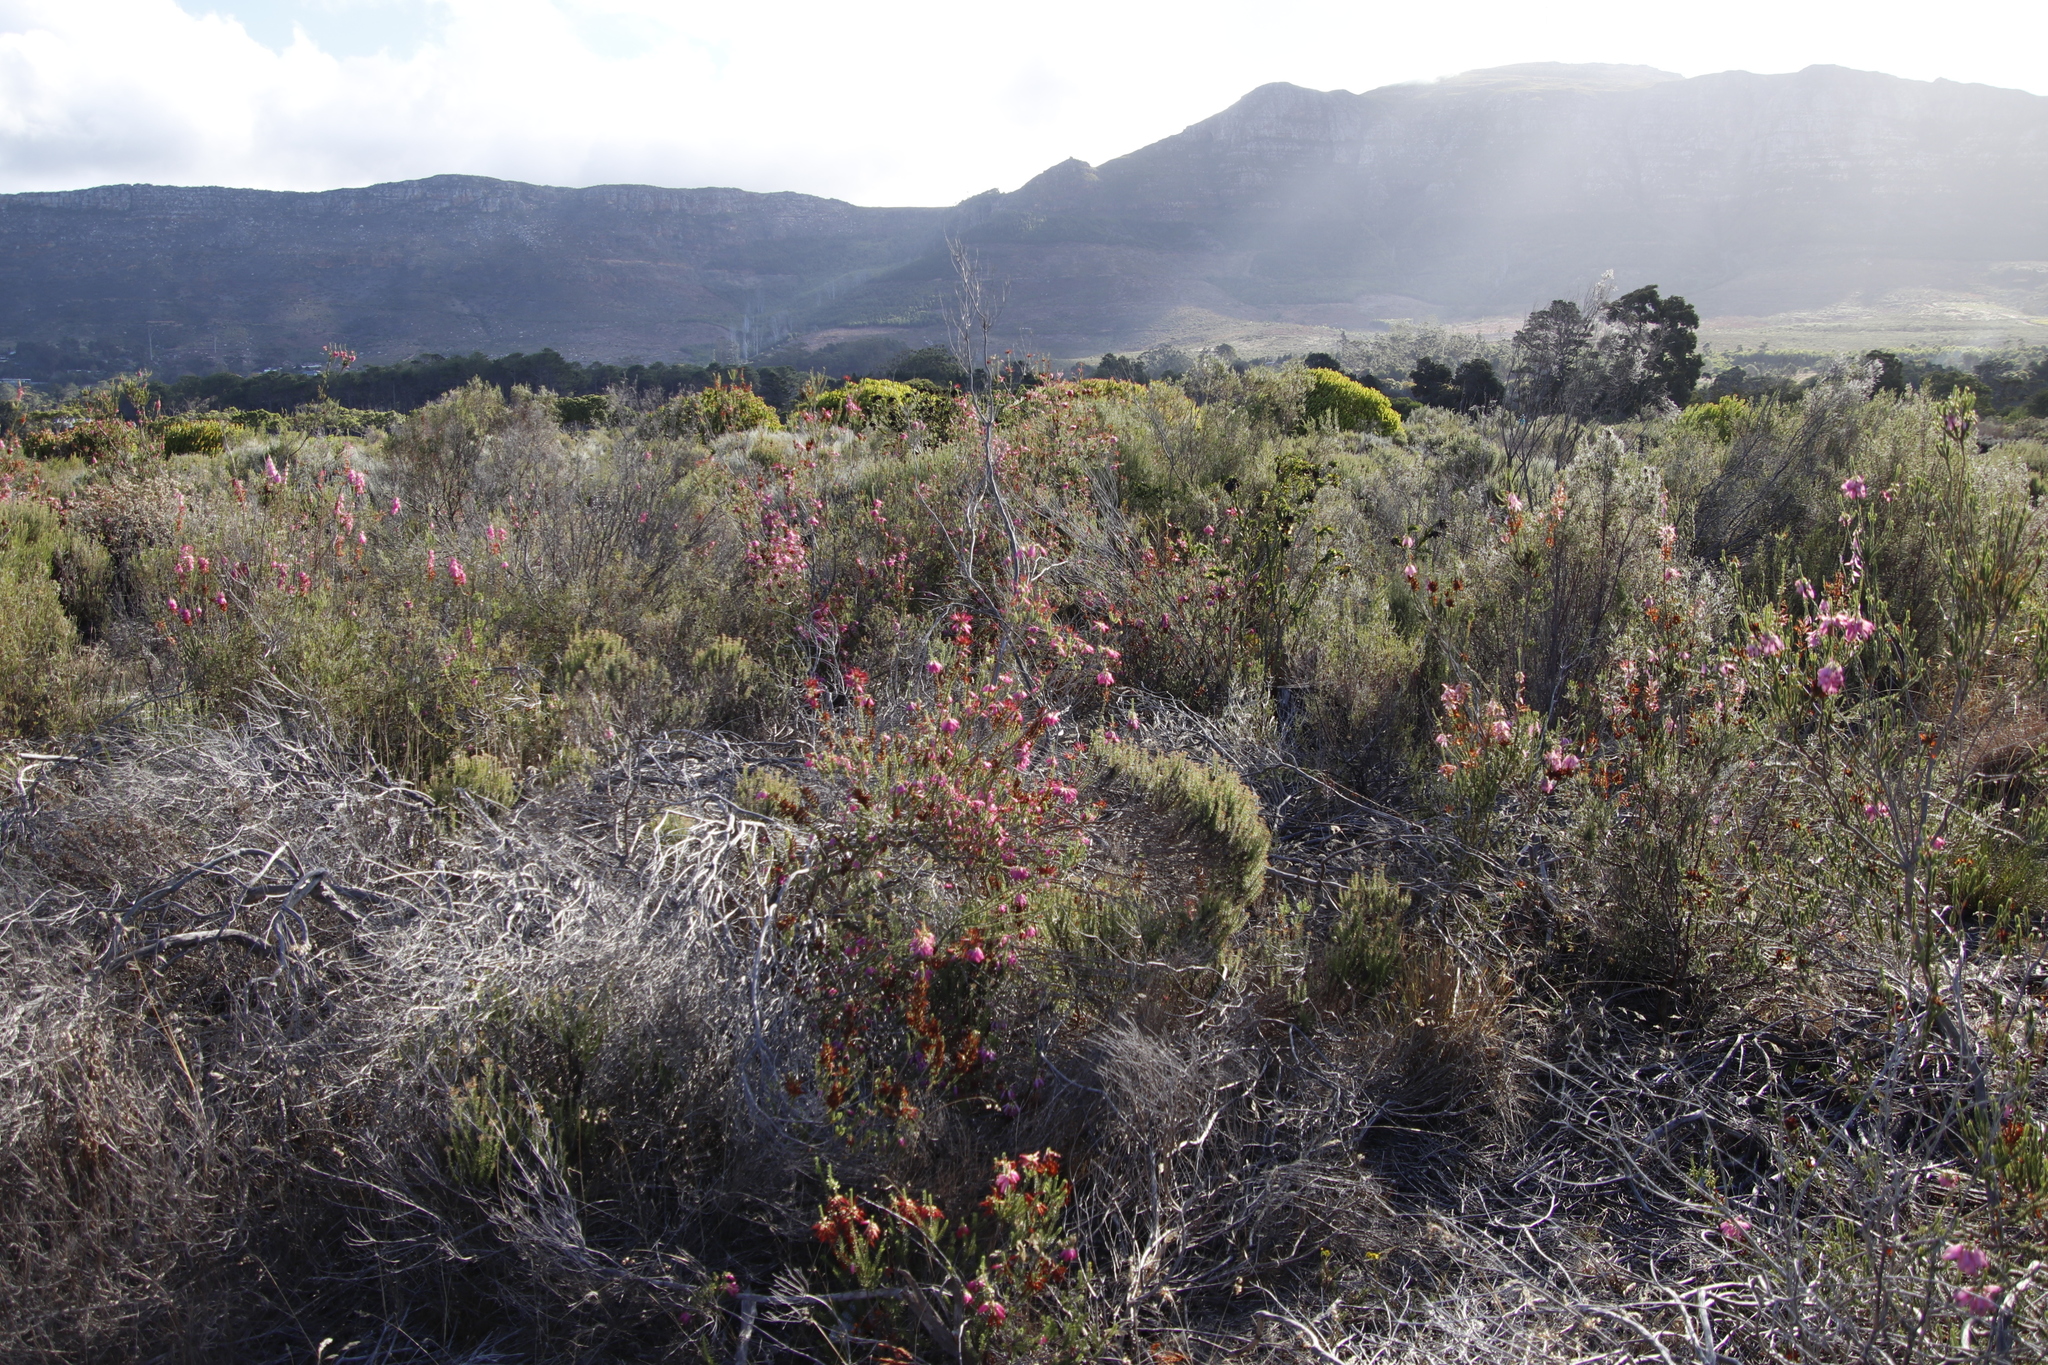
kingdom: Plantae
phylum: Tracheophyta
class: Magnoliopsida
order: Ericales
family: Ericaceae
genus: Erica
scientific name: Erica mammosa
